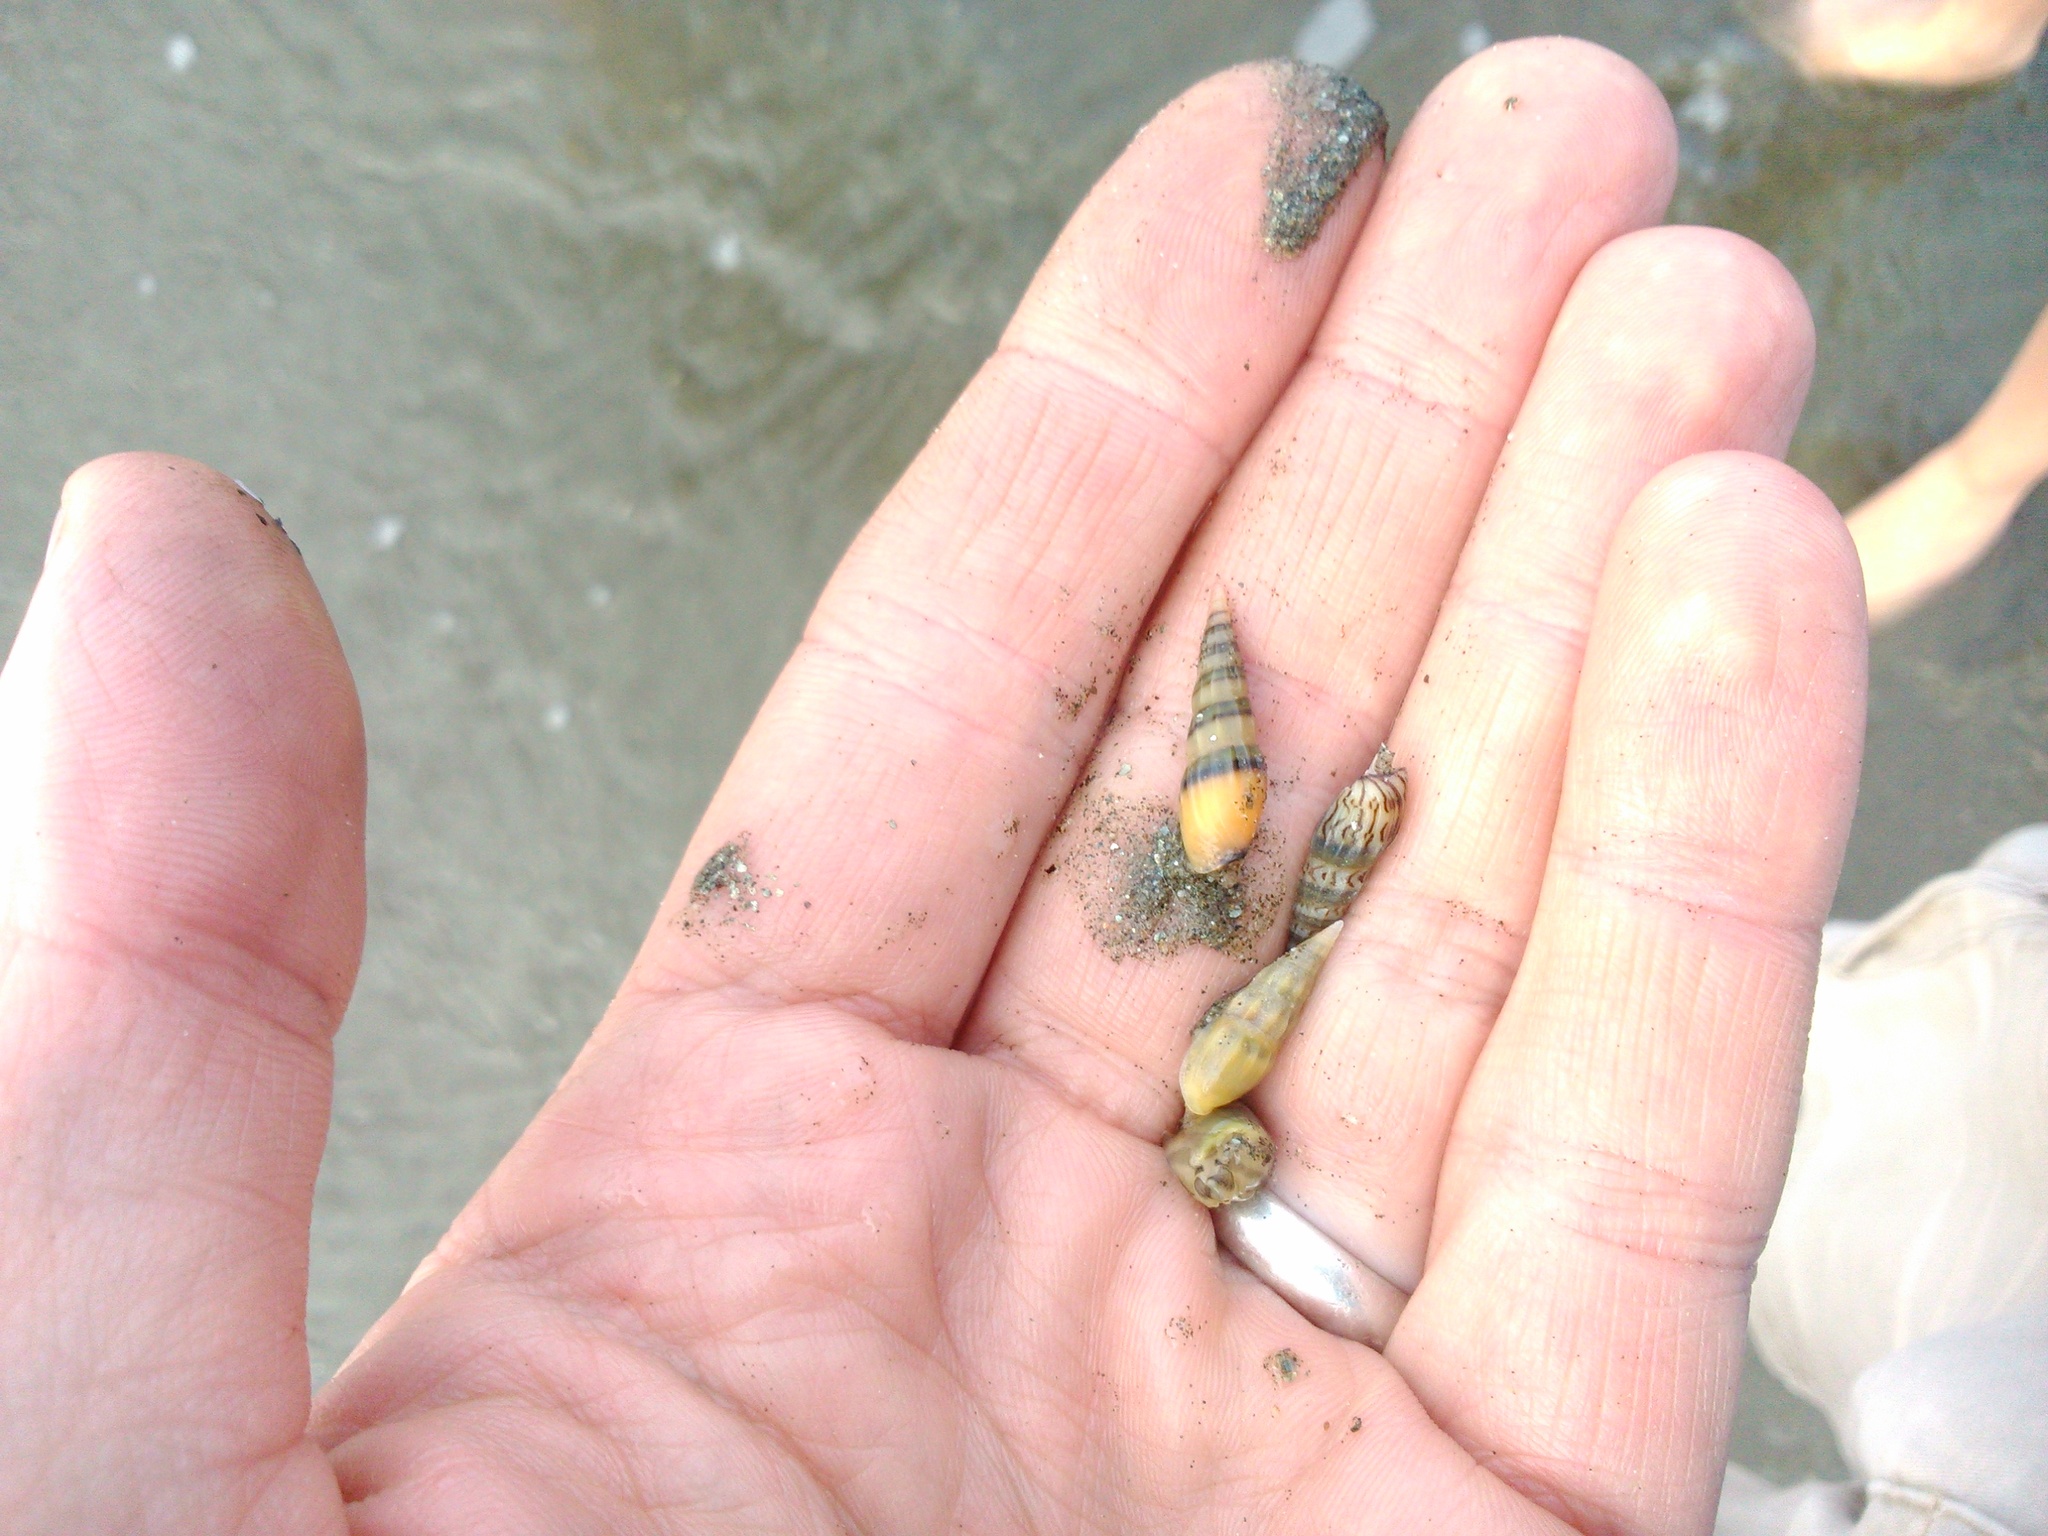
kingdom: Animalia
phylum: Mollusca
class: Gastropoda
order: Neogastropoda
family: Columbellidae
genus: Mazatlania
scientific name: Mazatlania fulgurata
